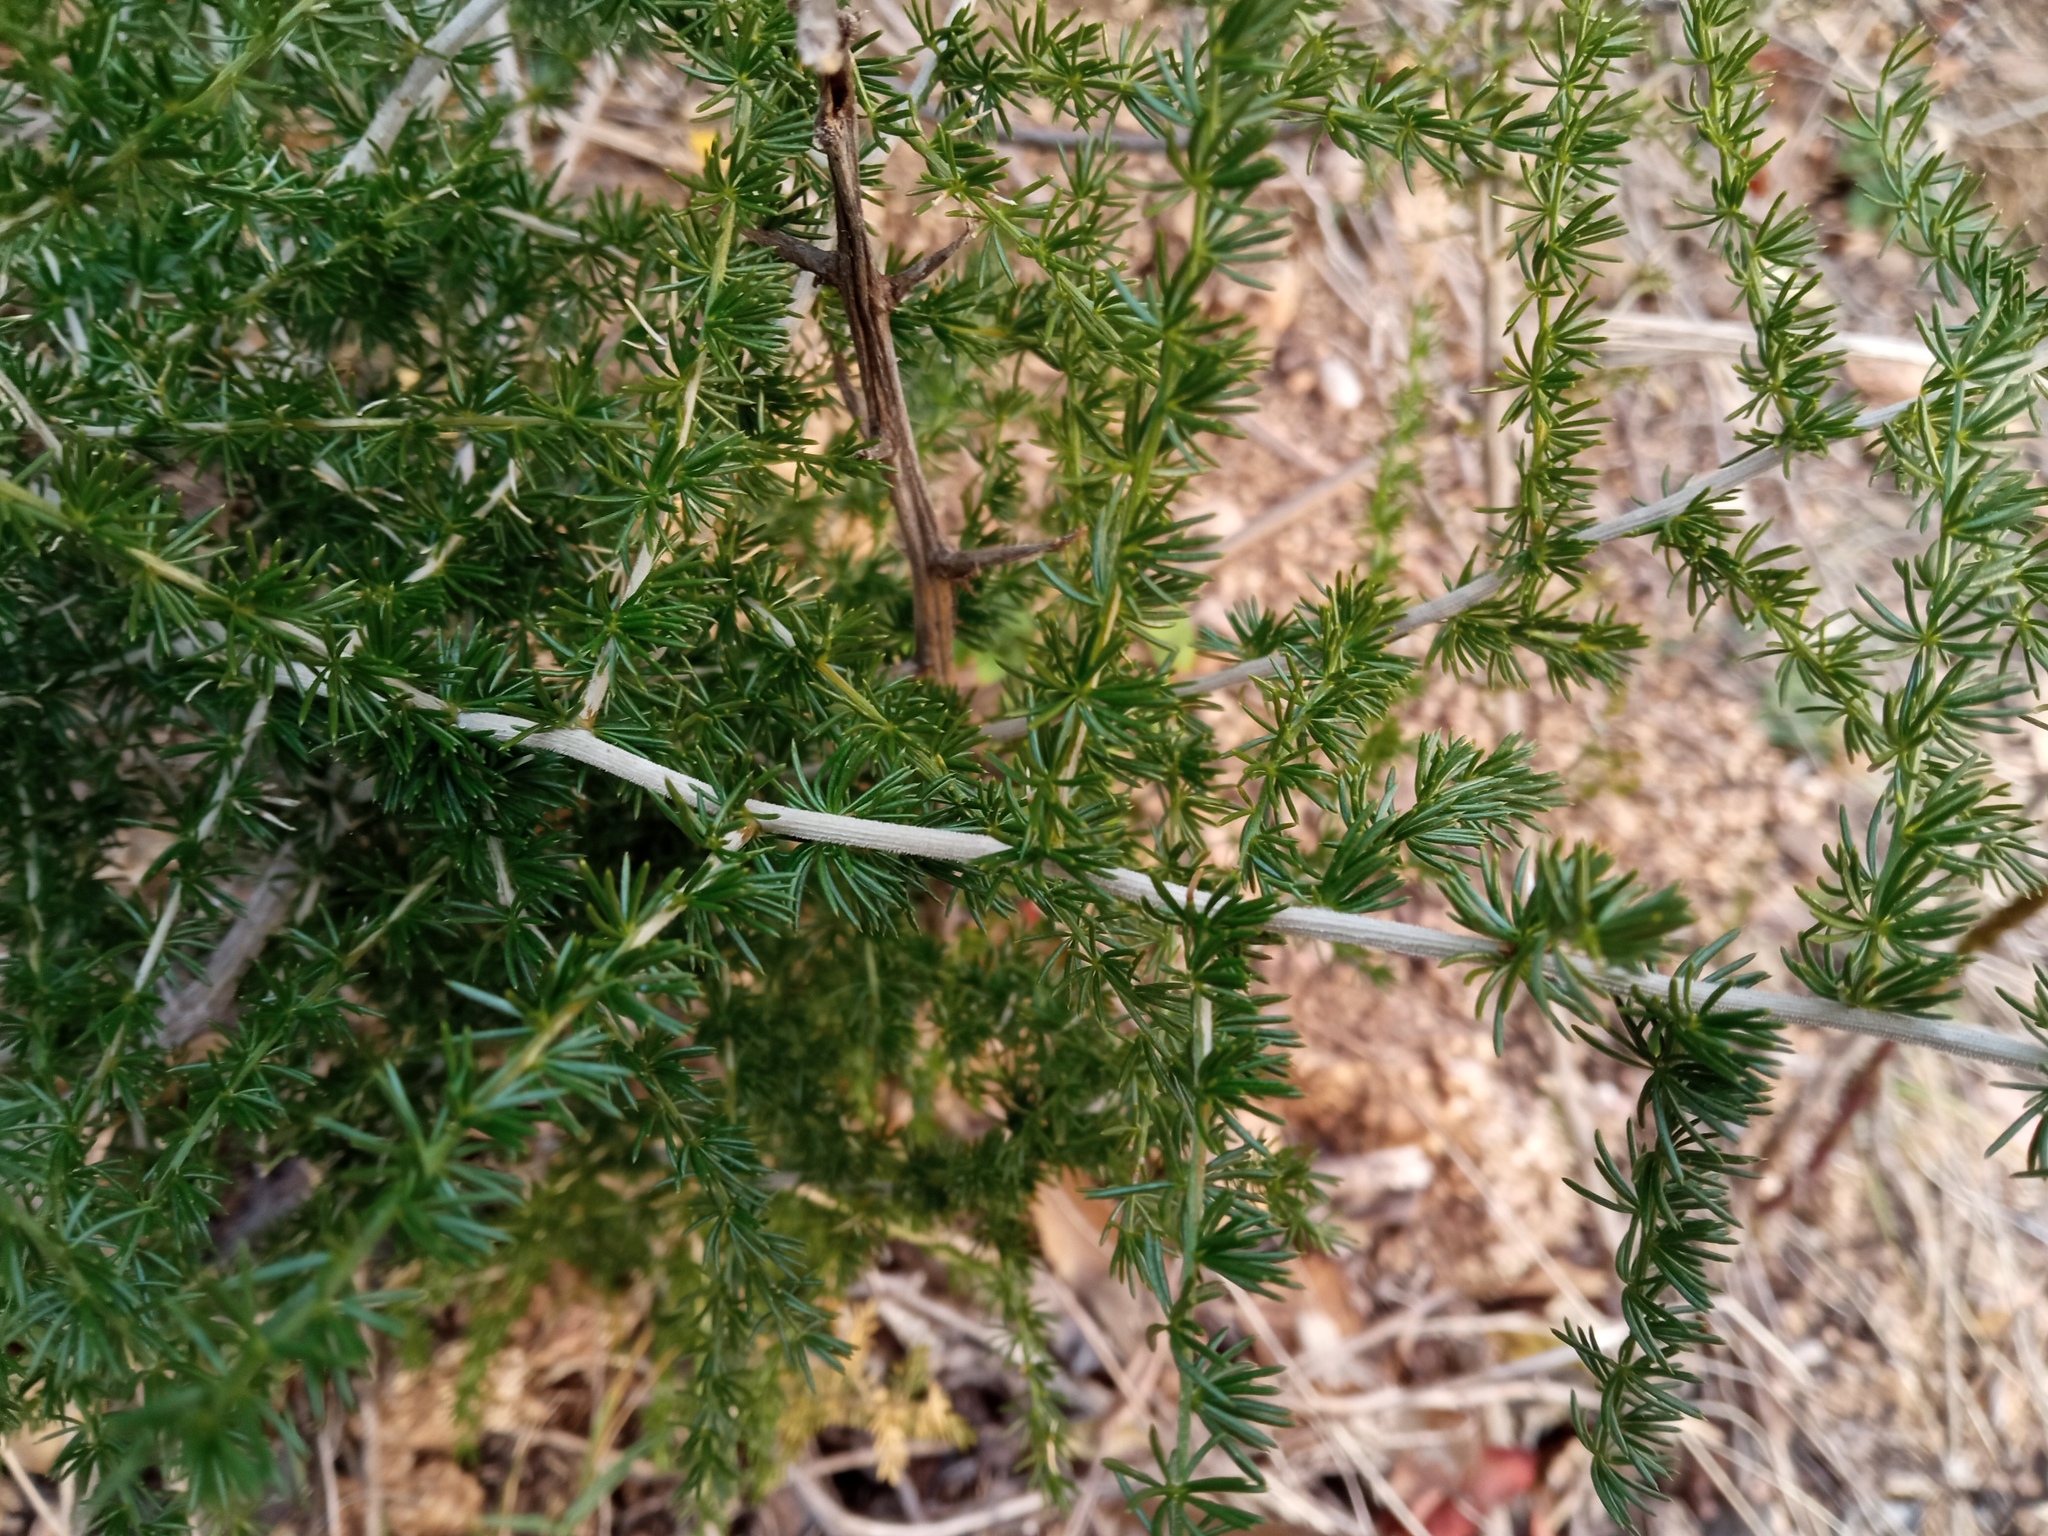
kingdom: Plantae
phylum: Tracheophyta
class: Liliopsida
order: Asparagales
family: Asparagaceae
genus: Asparagus
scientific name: Asparagus acutifolius
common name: Wild asparagus
